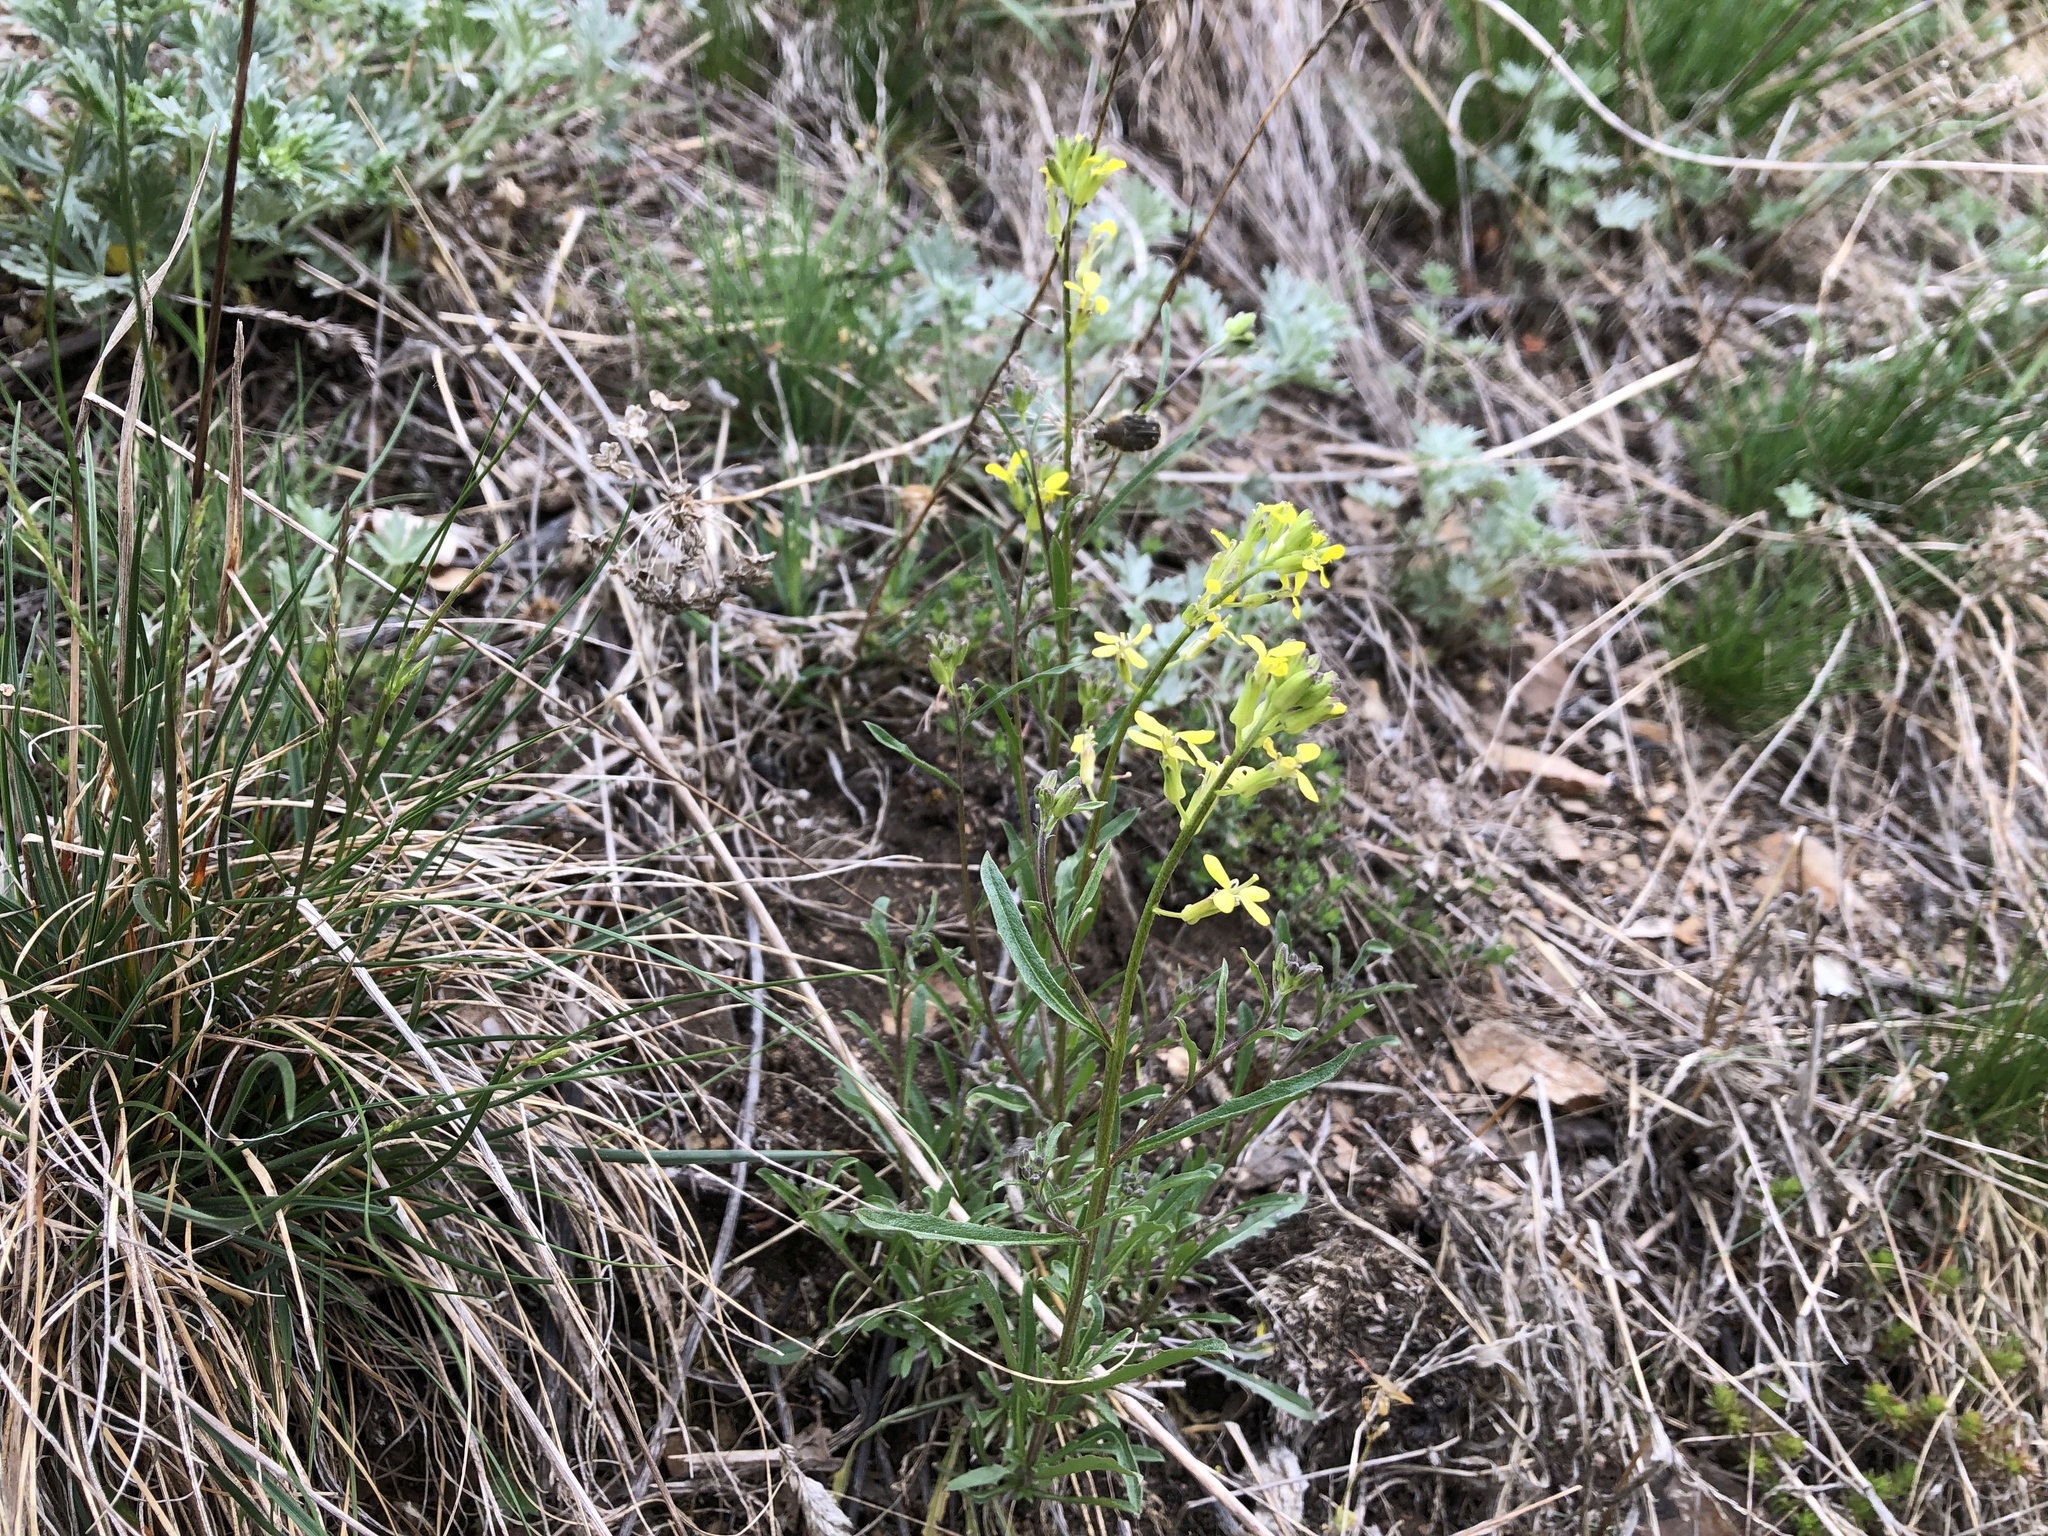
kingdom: Plantae
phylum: Tracheophyta
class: Magnoliopsida
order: Brassicales
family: Brassicaceae
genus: Erysimum
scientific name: Erysimum crepidifolium
